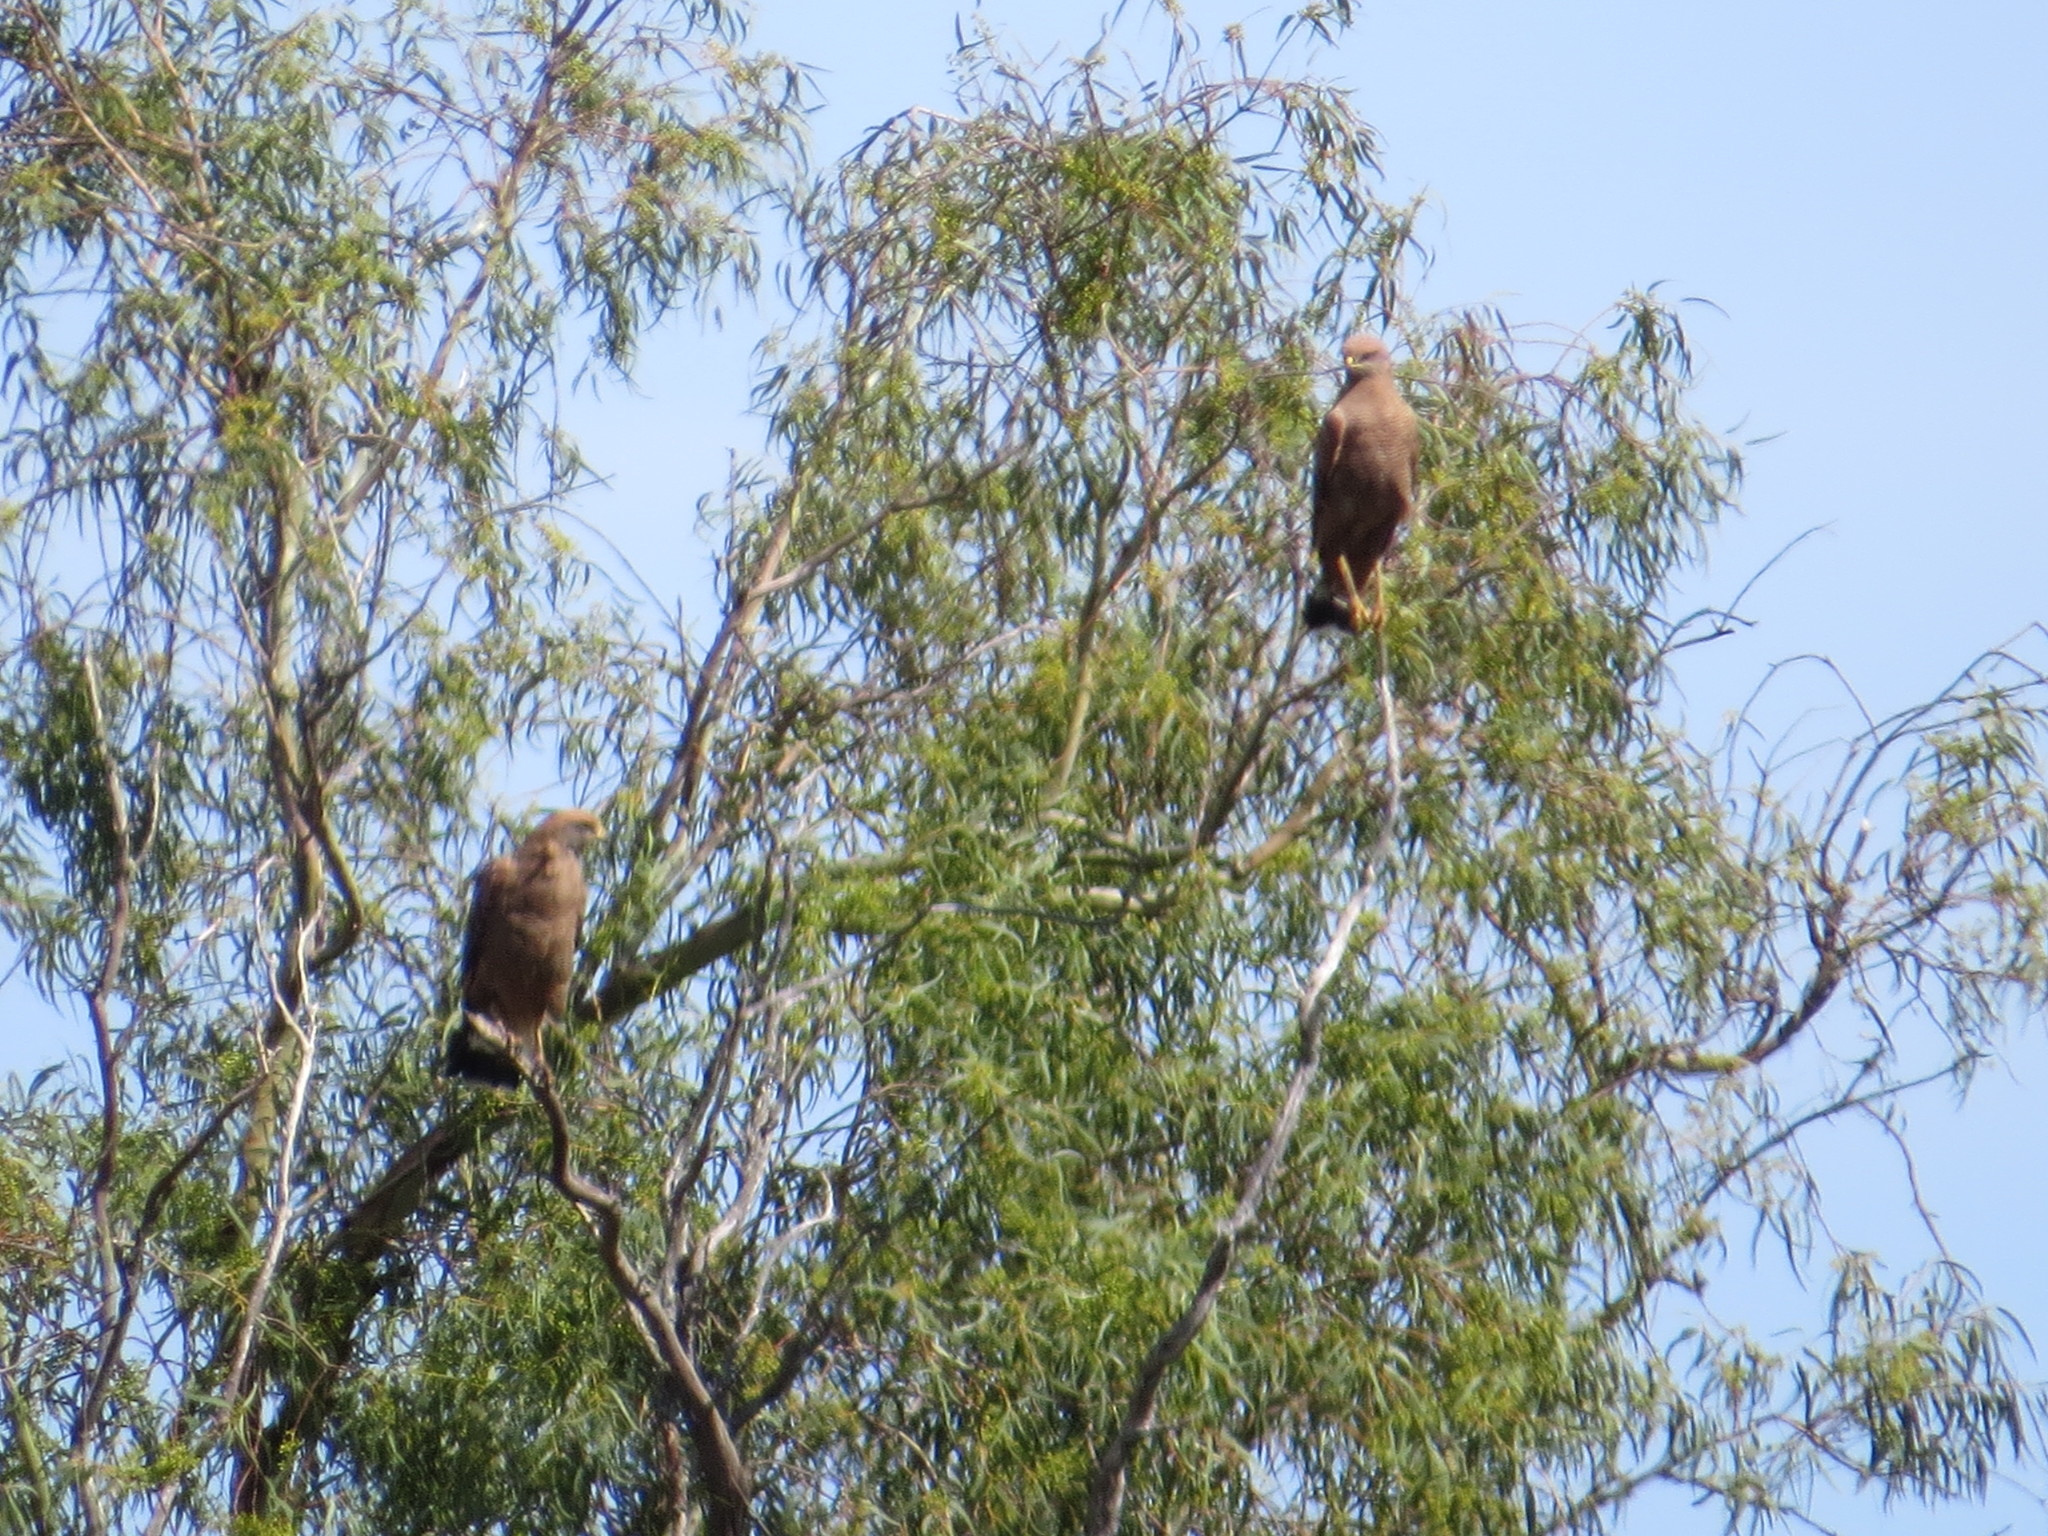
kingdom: Animalia
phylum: Chordata
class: Aves
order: Accipitriformes
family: Accipitridae
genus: Buteogallus
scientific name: Buteogallus meridionalis
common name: Savanna hawk
